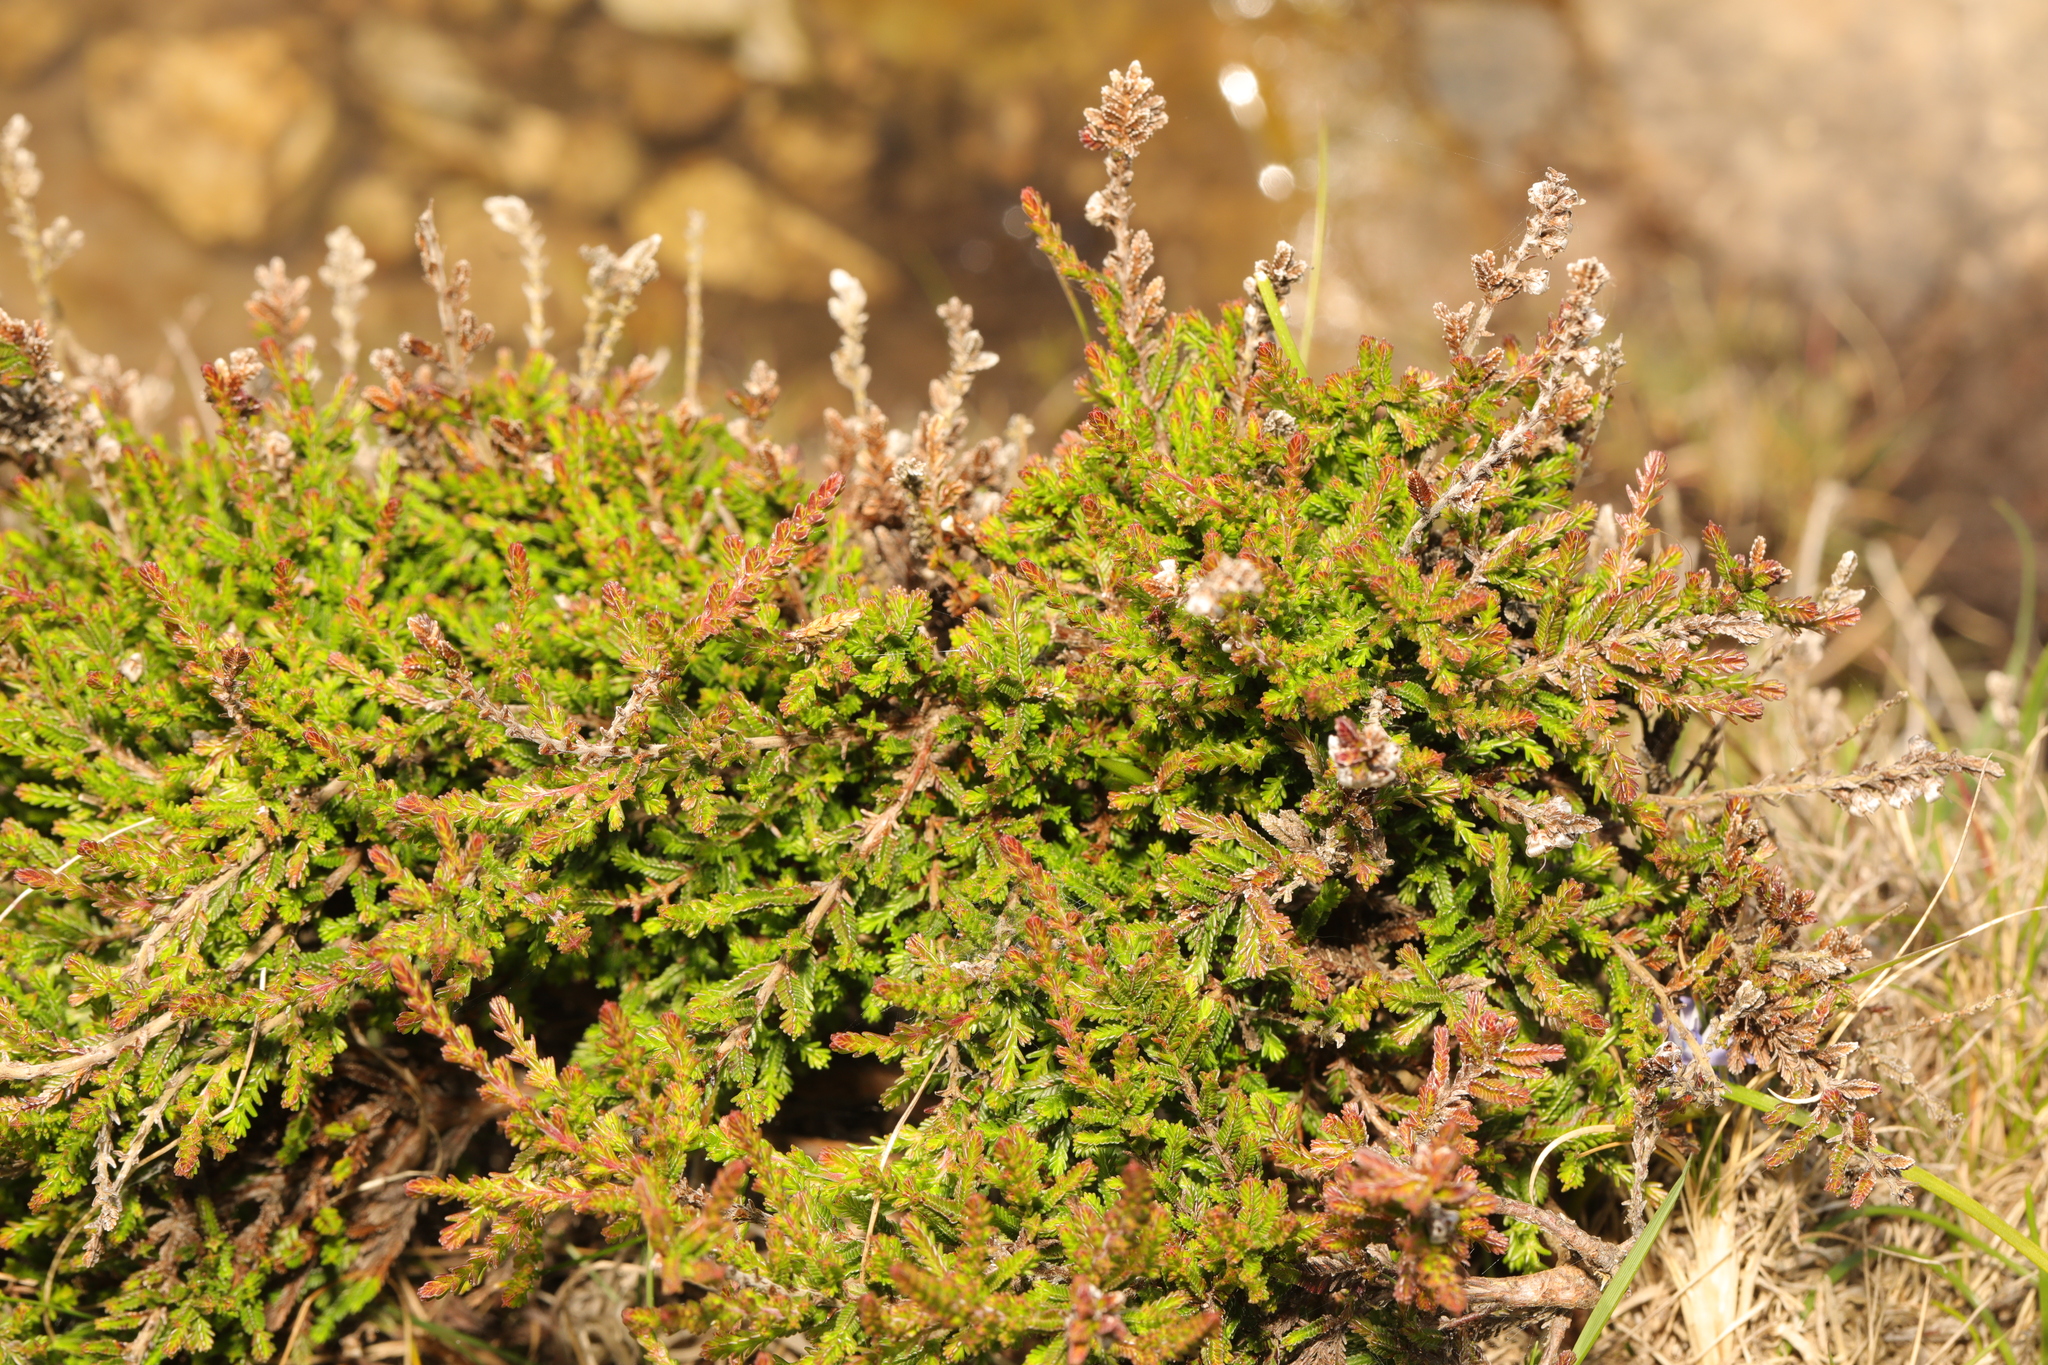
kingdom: Plantae
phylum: Tracheophyta
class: Magnoliopsida
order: Ericales
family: Ericaceae
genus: Calluna
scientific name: Calluna vulgaris
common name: Heather
